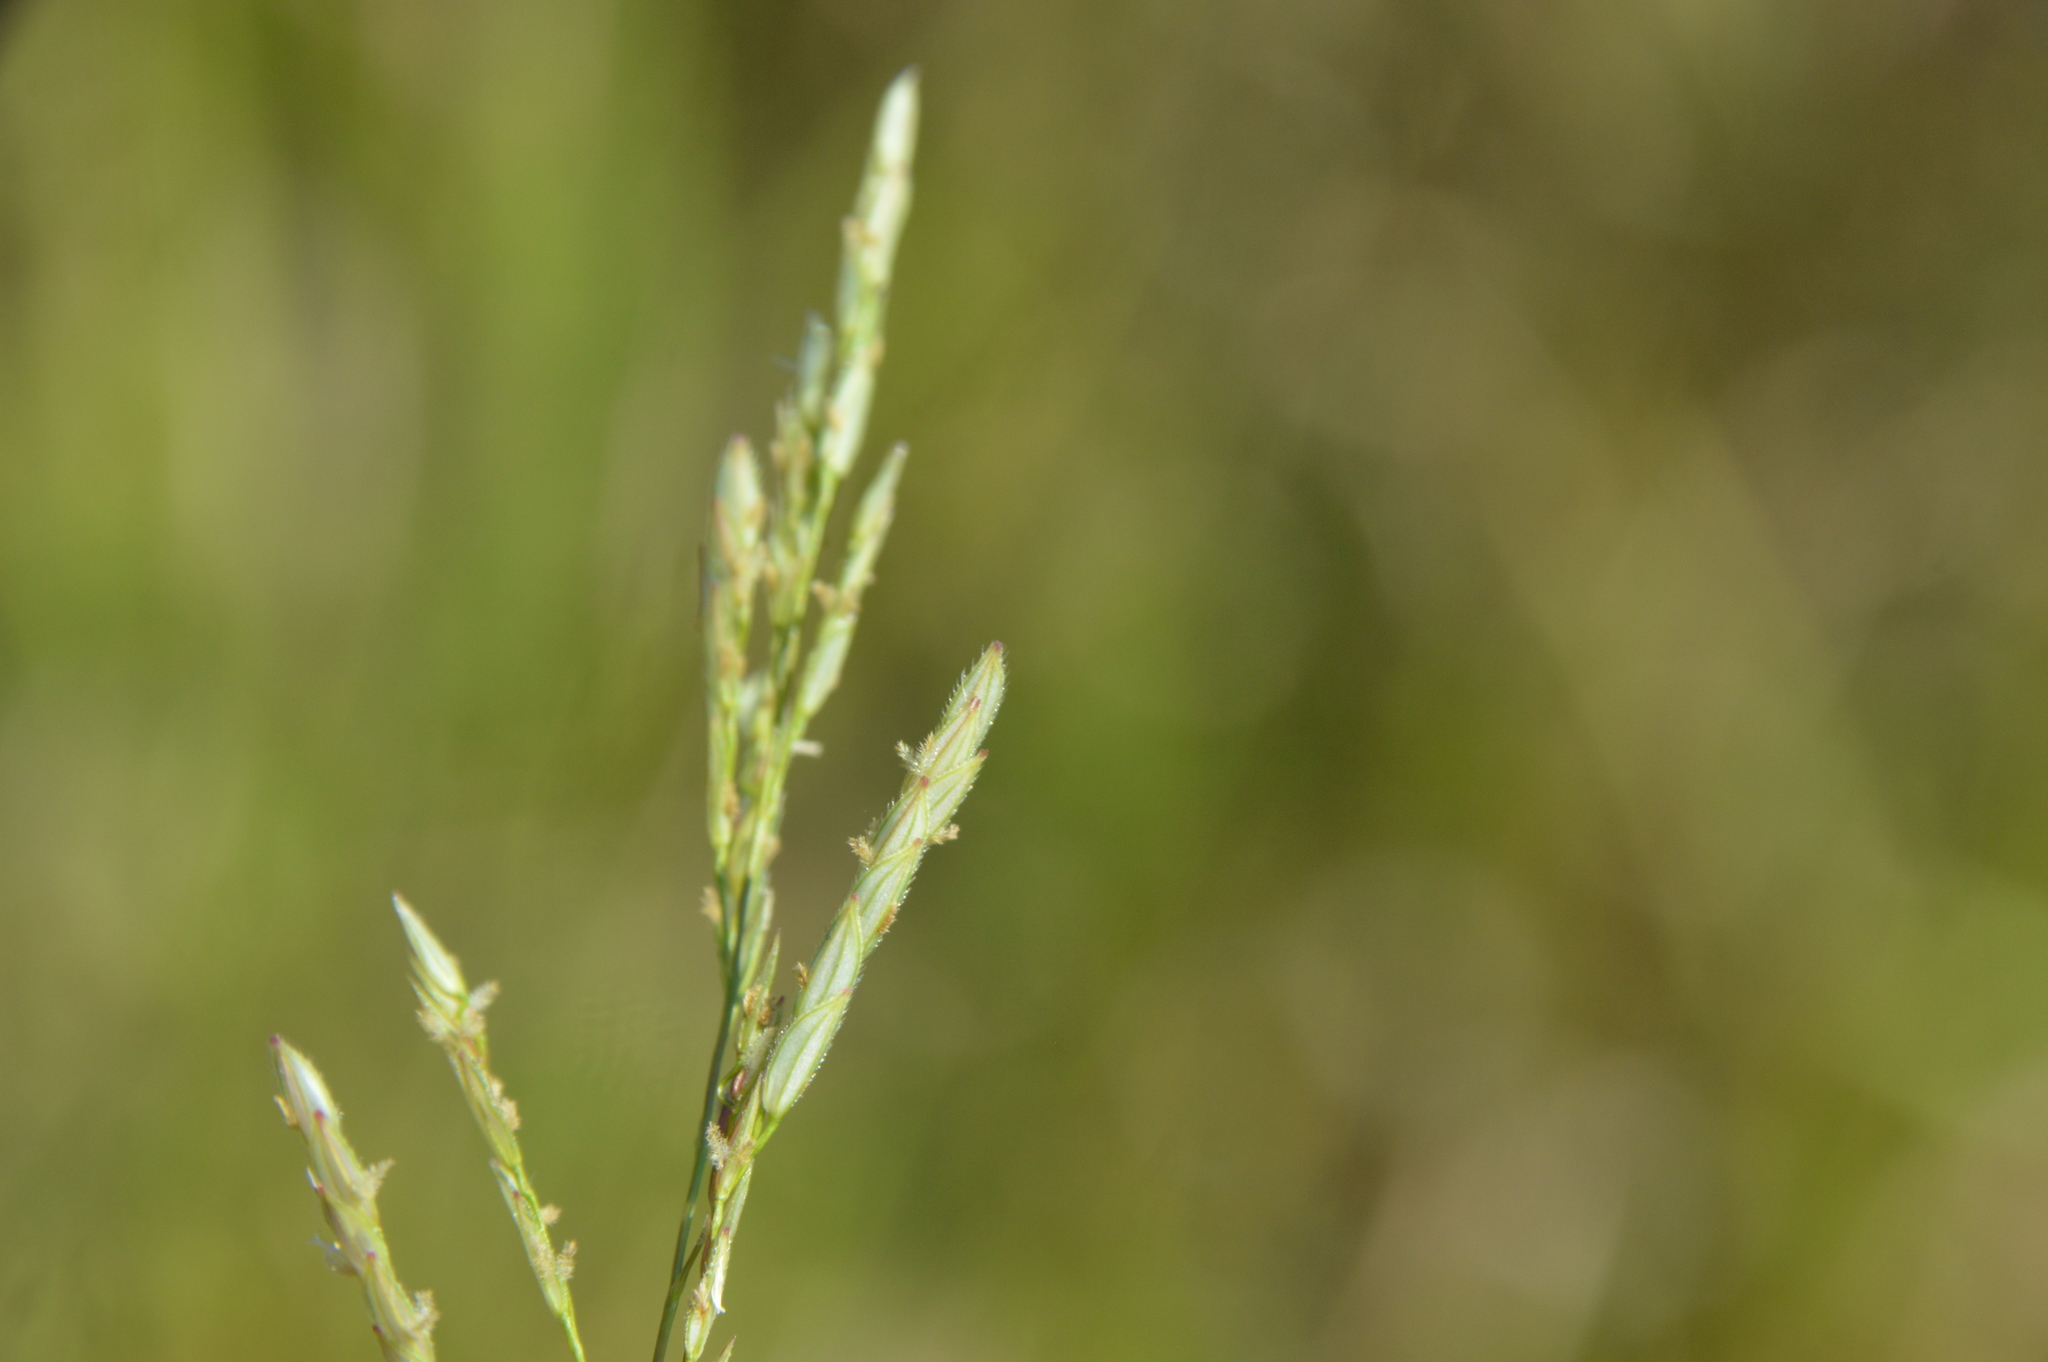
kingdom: Plantae
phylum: Tracheophyta
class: Liliopsida
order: Poales
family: Poaceae
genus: Leersia
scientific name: Leersia hexandra
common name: Southern cut grass
